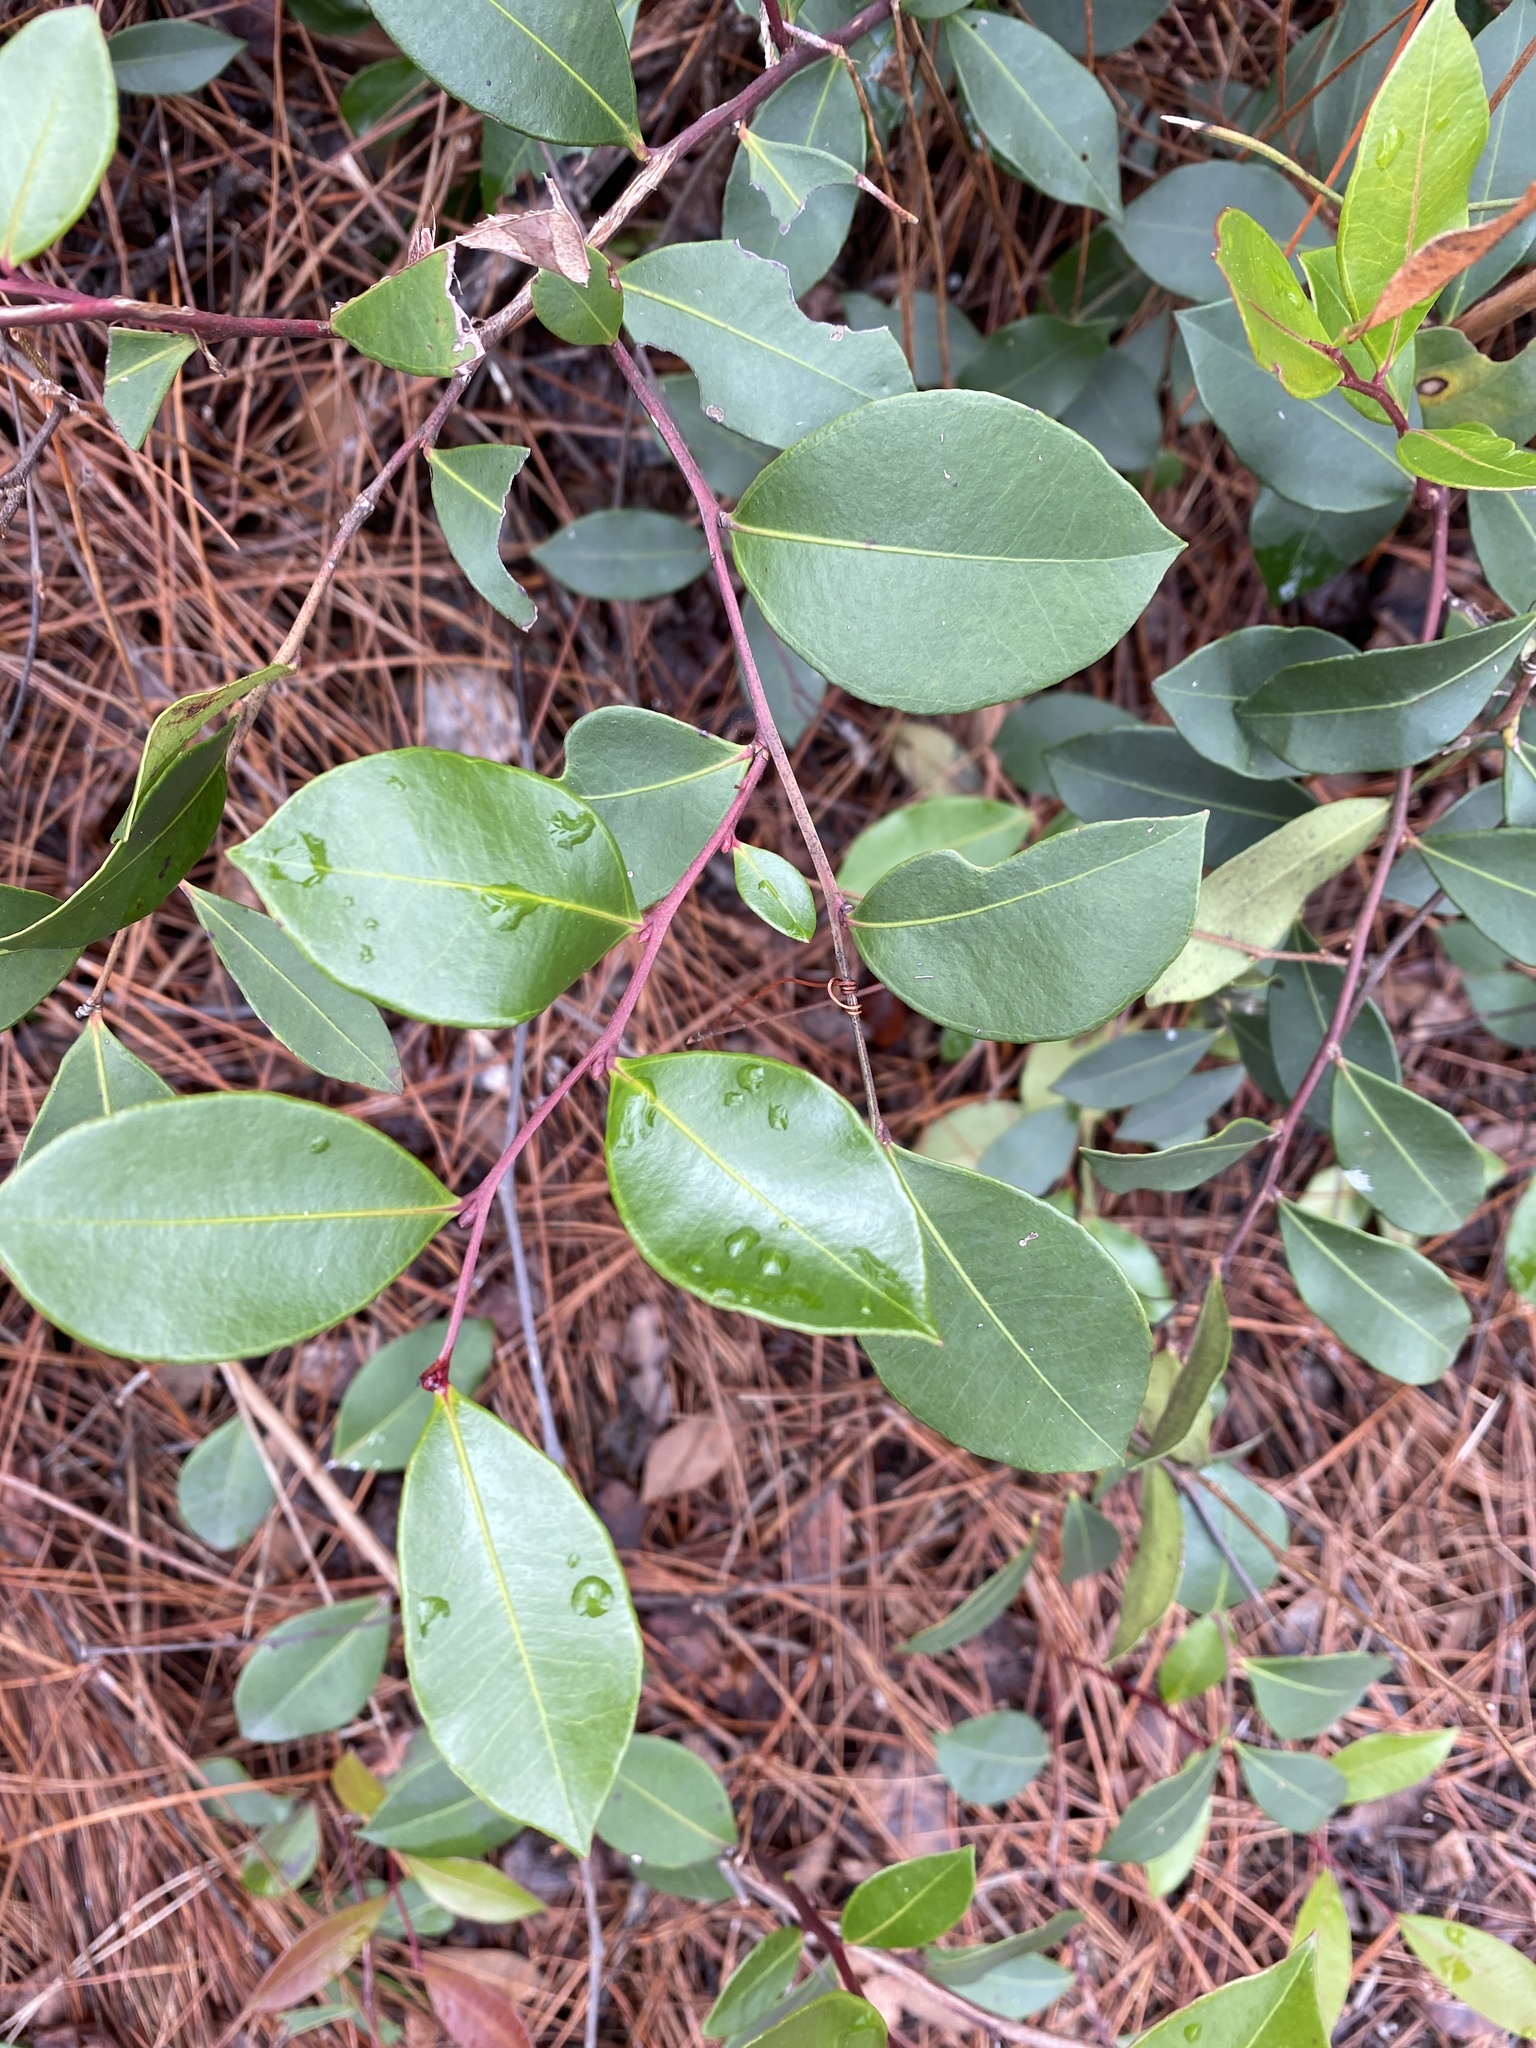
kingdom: Plantae
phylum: Tracheophyta
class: Magnoliopsida
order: Ericales
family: Ericaceae
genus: Lyonia
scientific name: Lyonia lucida
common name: Fetterbush
